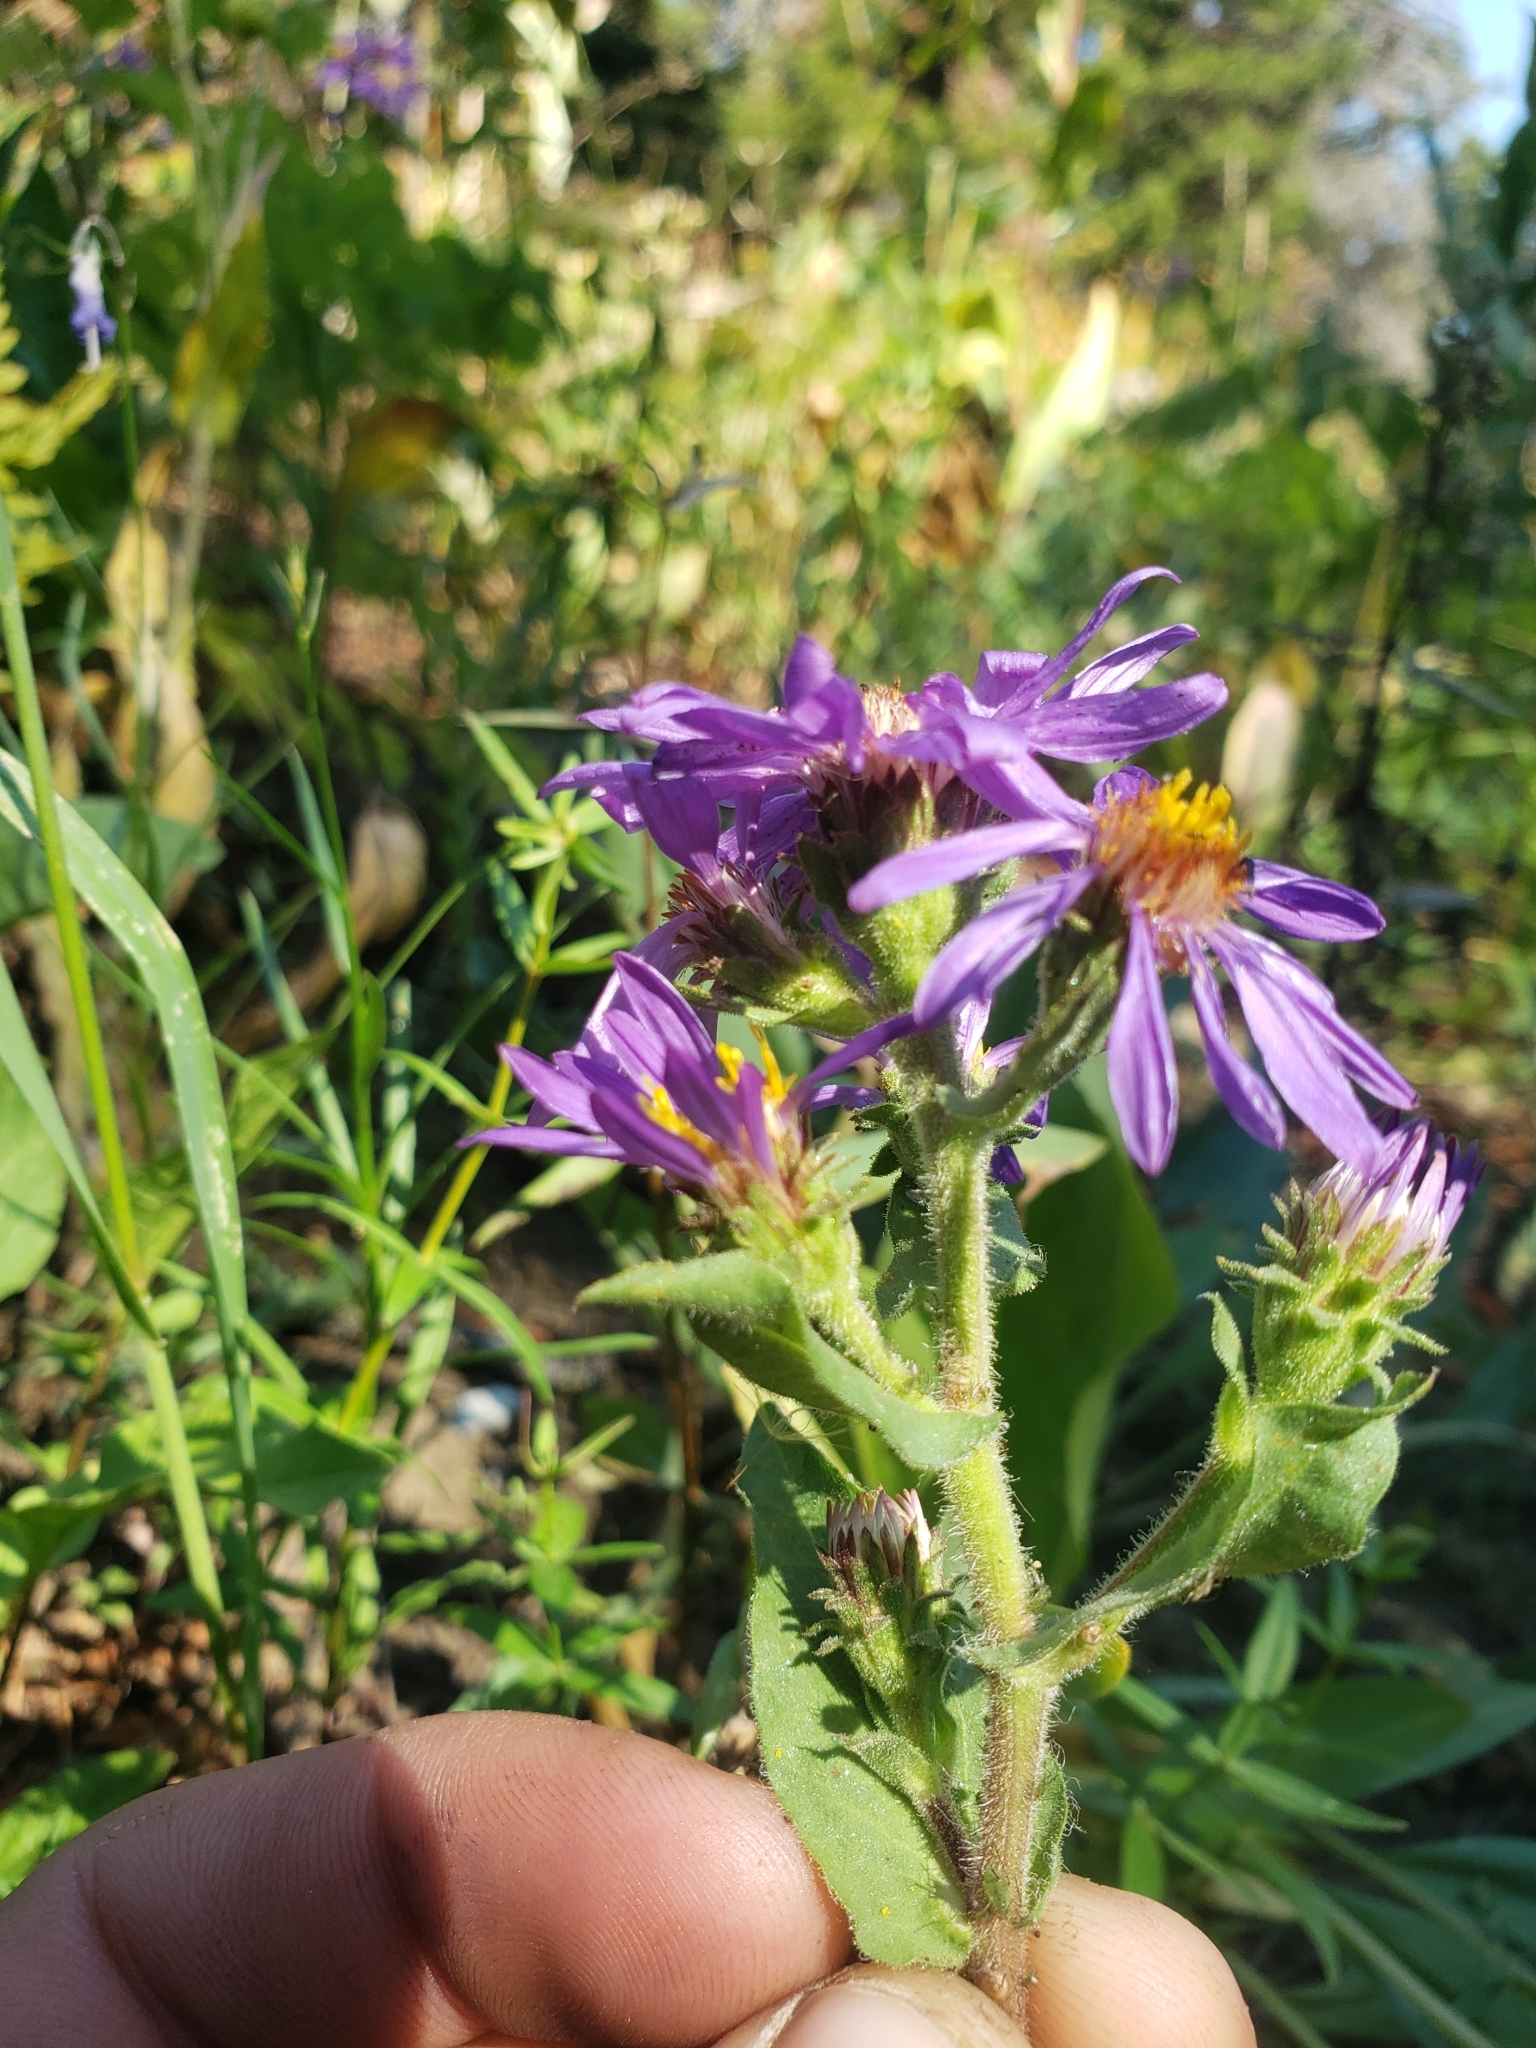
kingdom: Plantae
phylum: Tracheophyta
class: Magnoliopsida
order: Asterales
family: Asteraceae
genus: Eurybia
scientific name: Eurybia integrifolia
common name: Thick-stem aster
